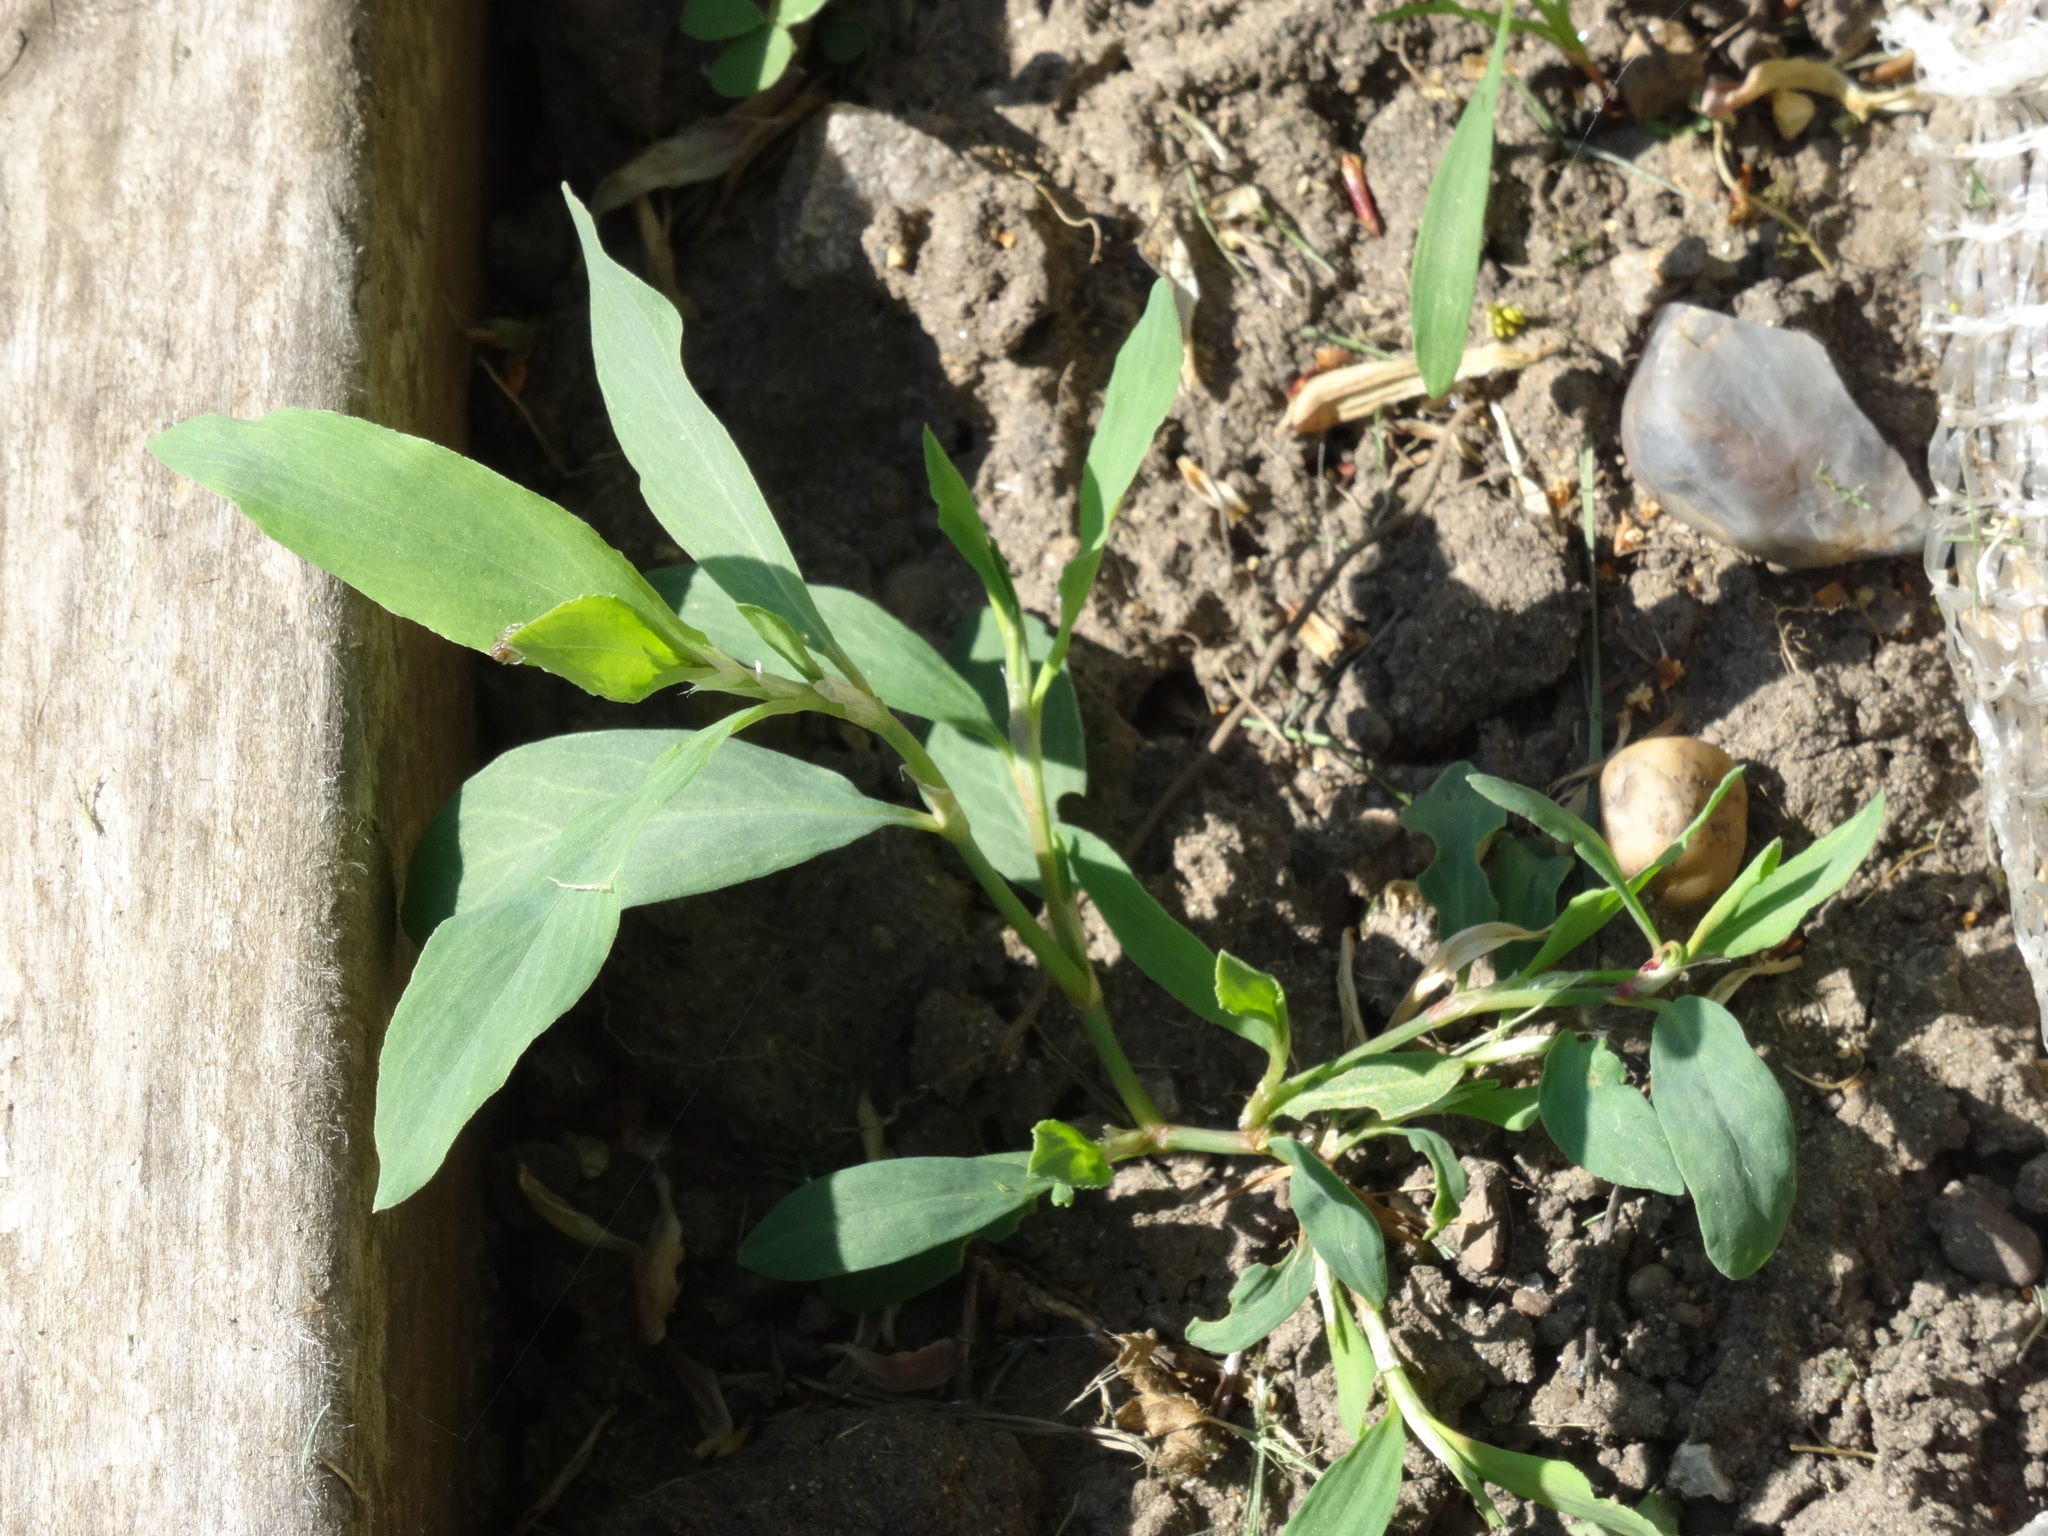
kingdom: Plantae
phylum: Tracheophyta
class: Magnoliopsida
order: Caryophyllales
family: Polygonaceae
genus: Polygonum
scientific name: Polygonum aviculare
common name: Prostrate knotweed
